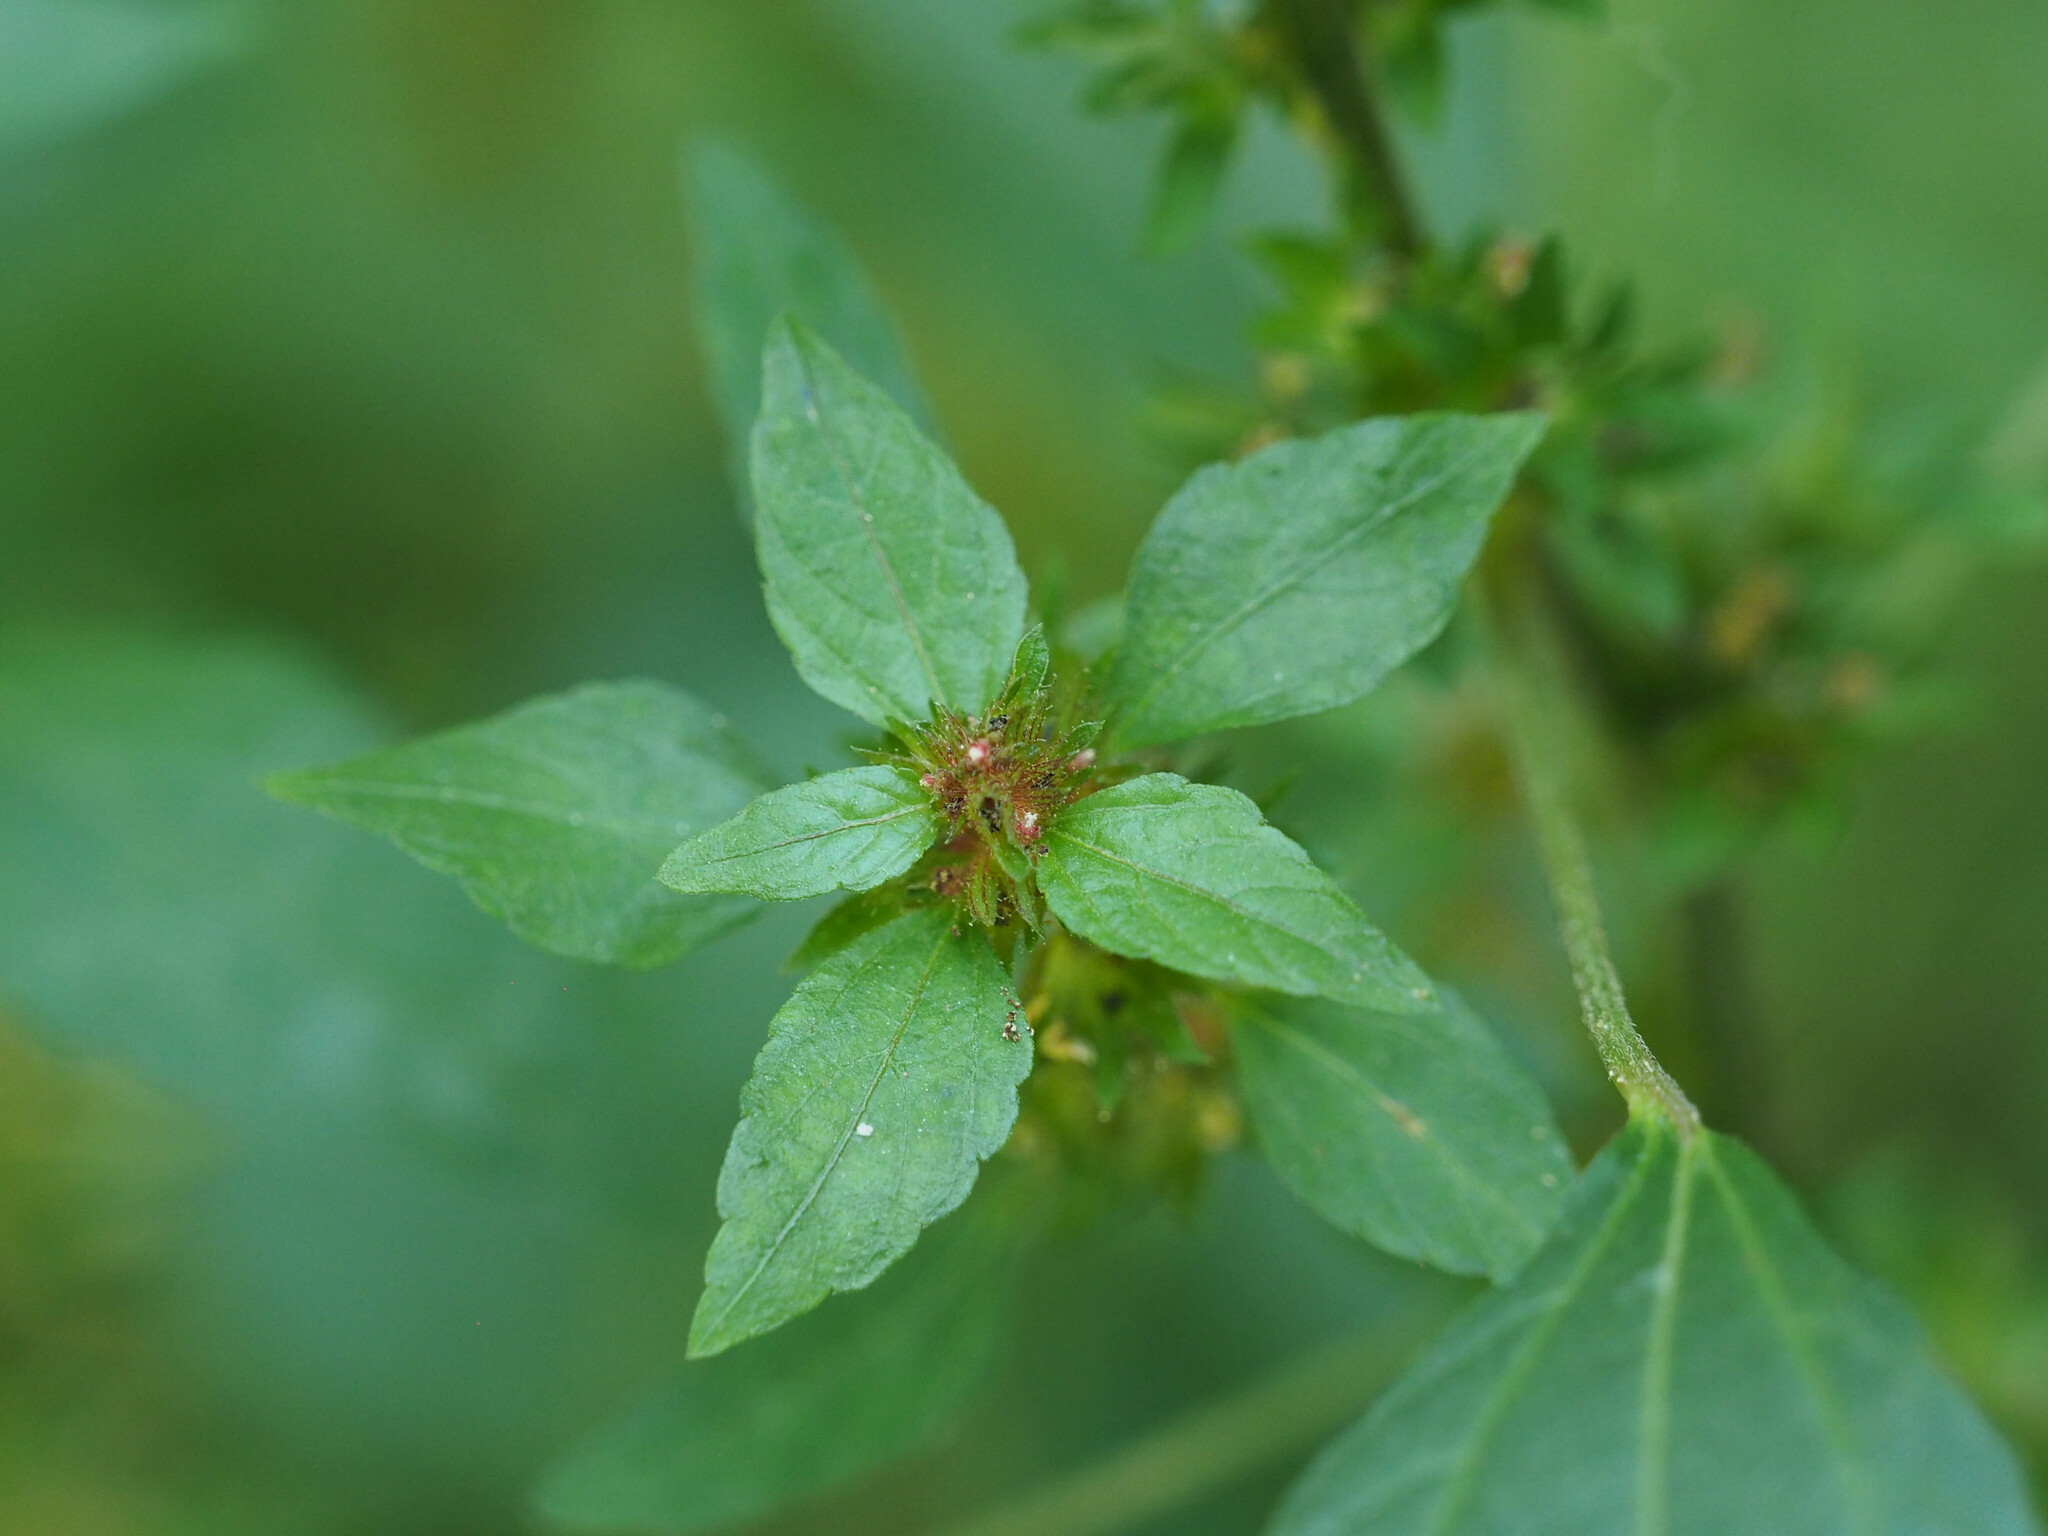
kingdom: Plantae
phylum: Tracheophyta
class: Magnoliopsida
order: Malpighiales
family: Euphorbiaceae
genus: Acalypha
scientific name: Acalypha rhomboidea
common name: Rhombic copperleaf
